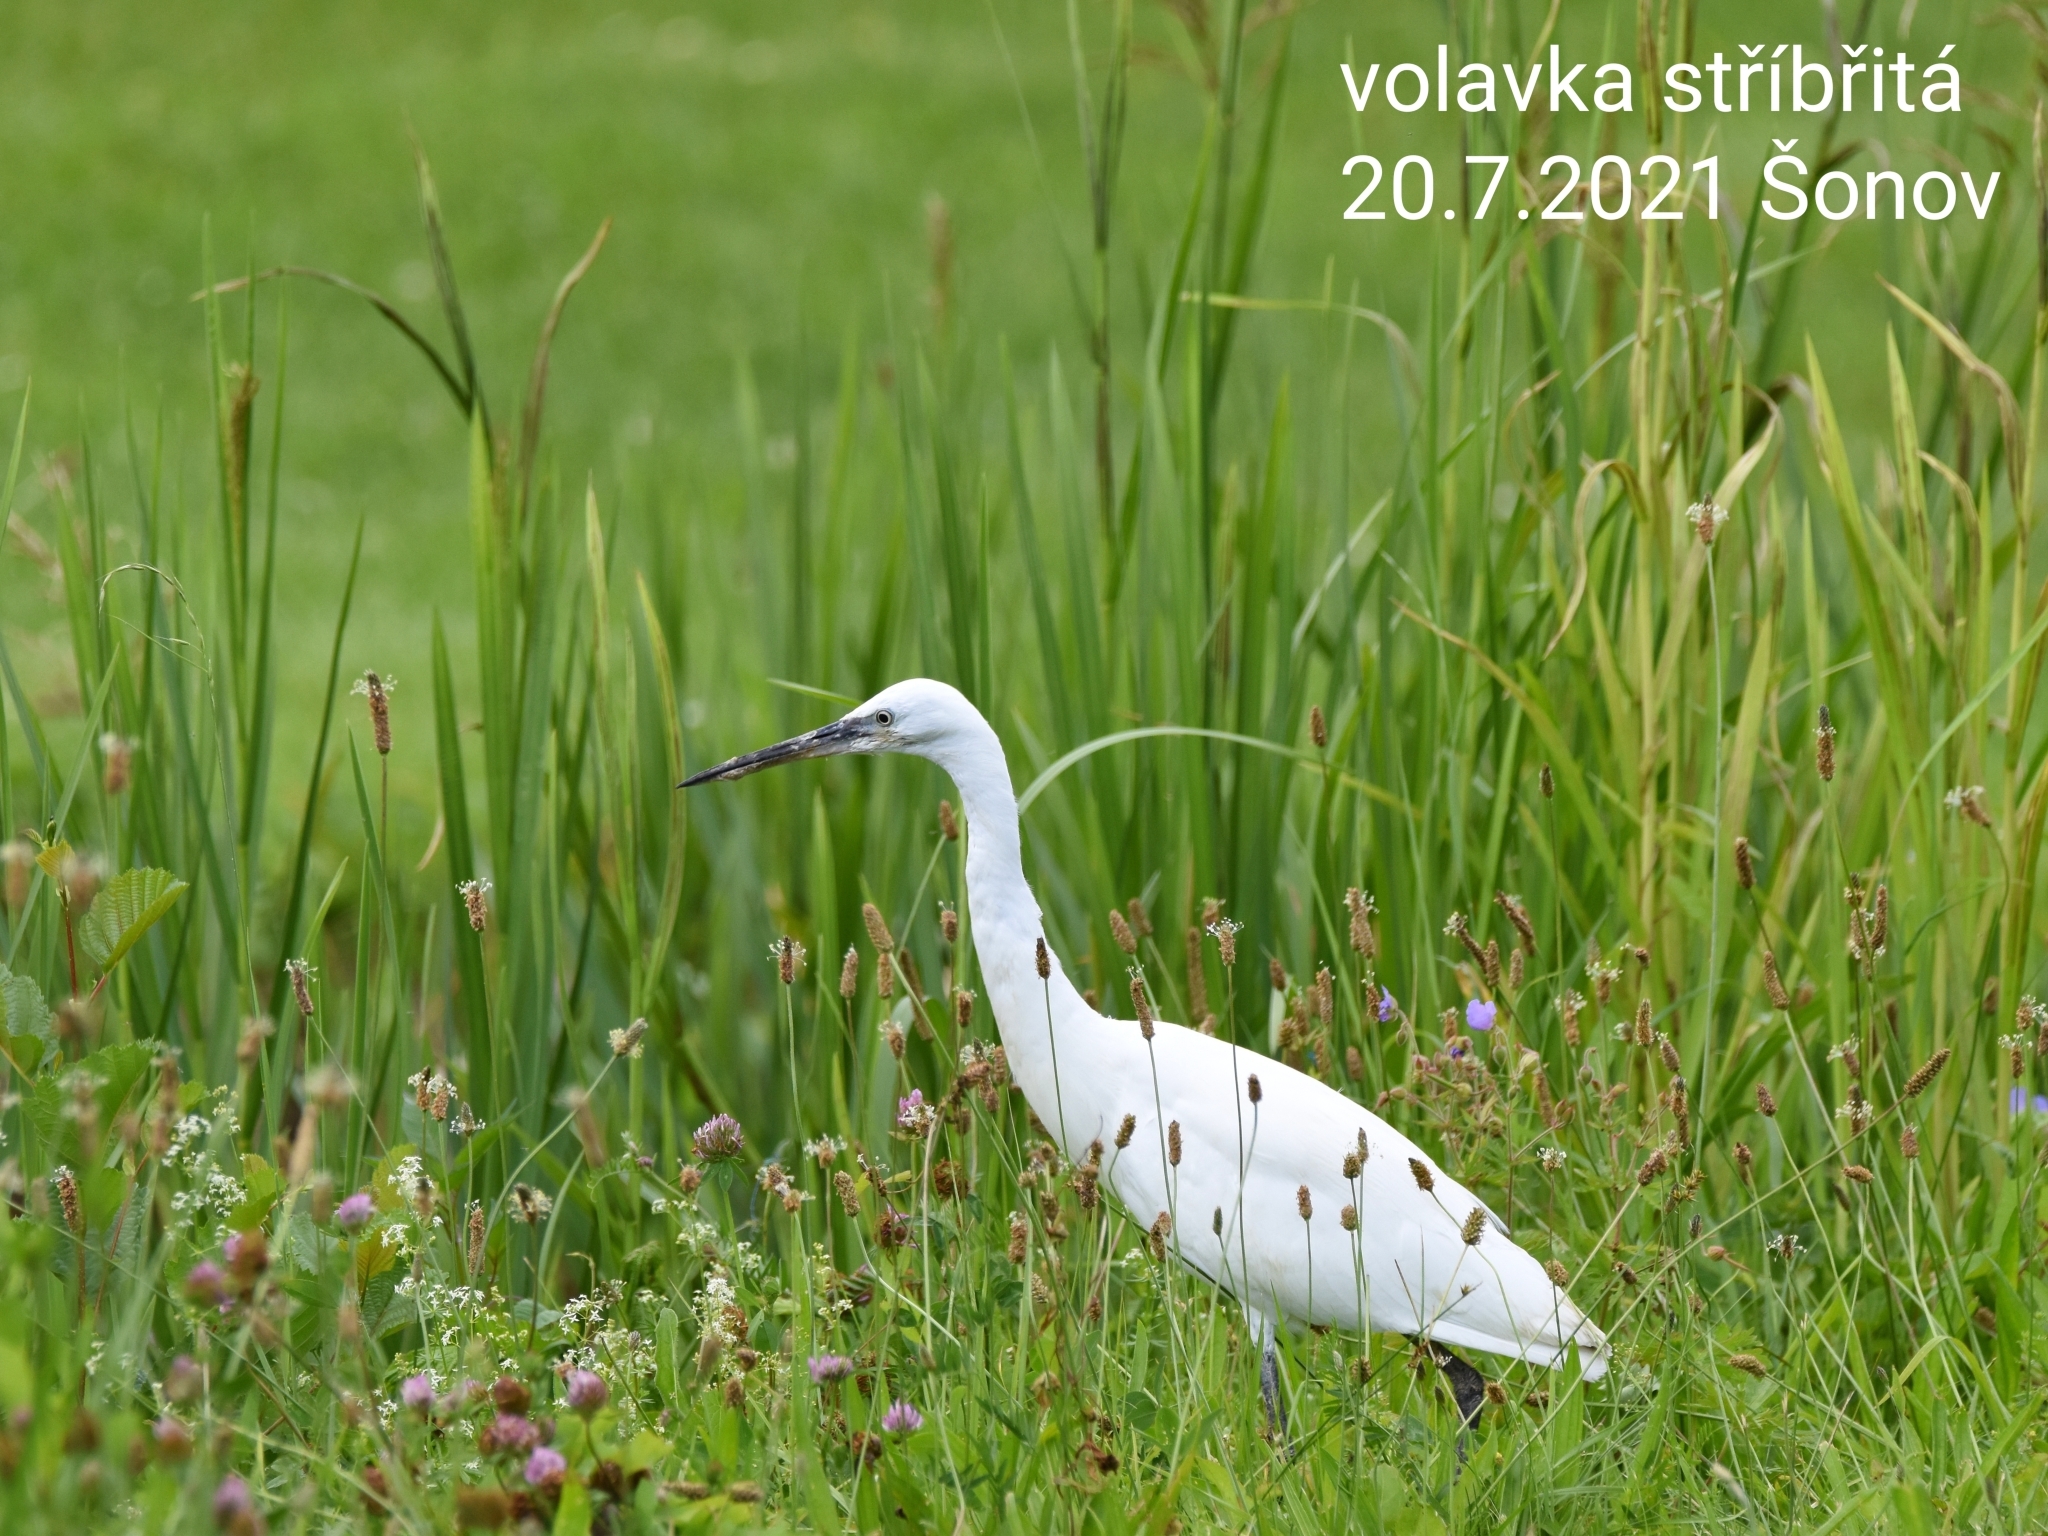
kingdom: Animalia
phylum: Chordata
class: Aves
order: Pelecaniformes
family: Ardeidae
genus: Egretta
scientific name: Egretta garzetta
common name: Little egret
